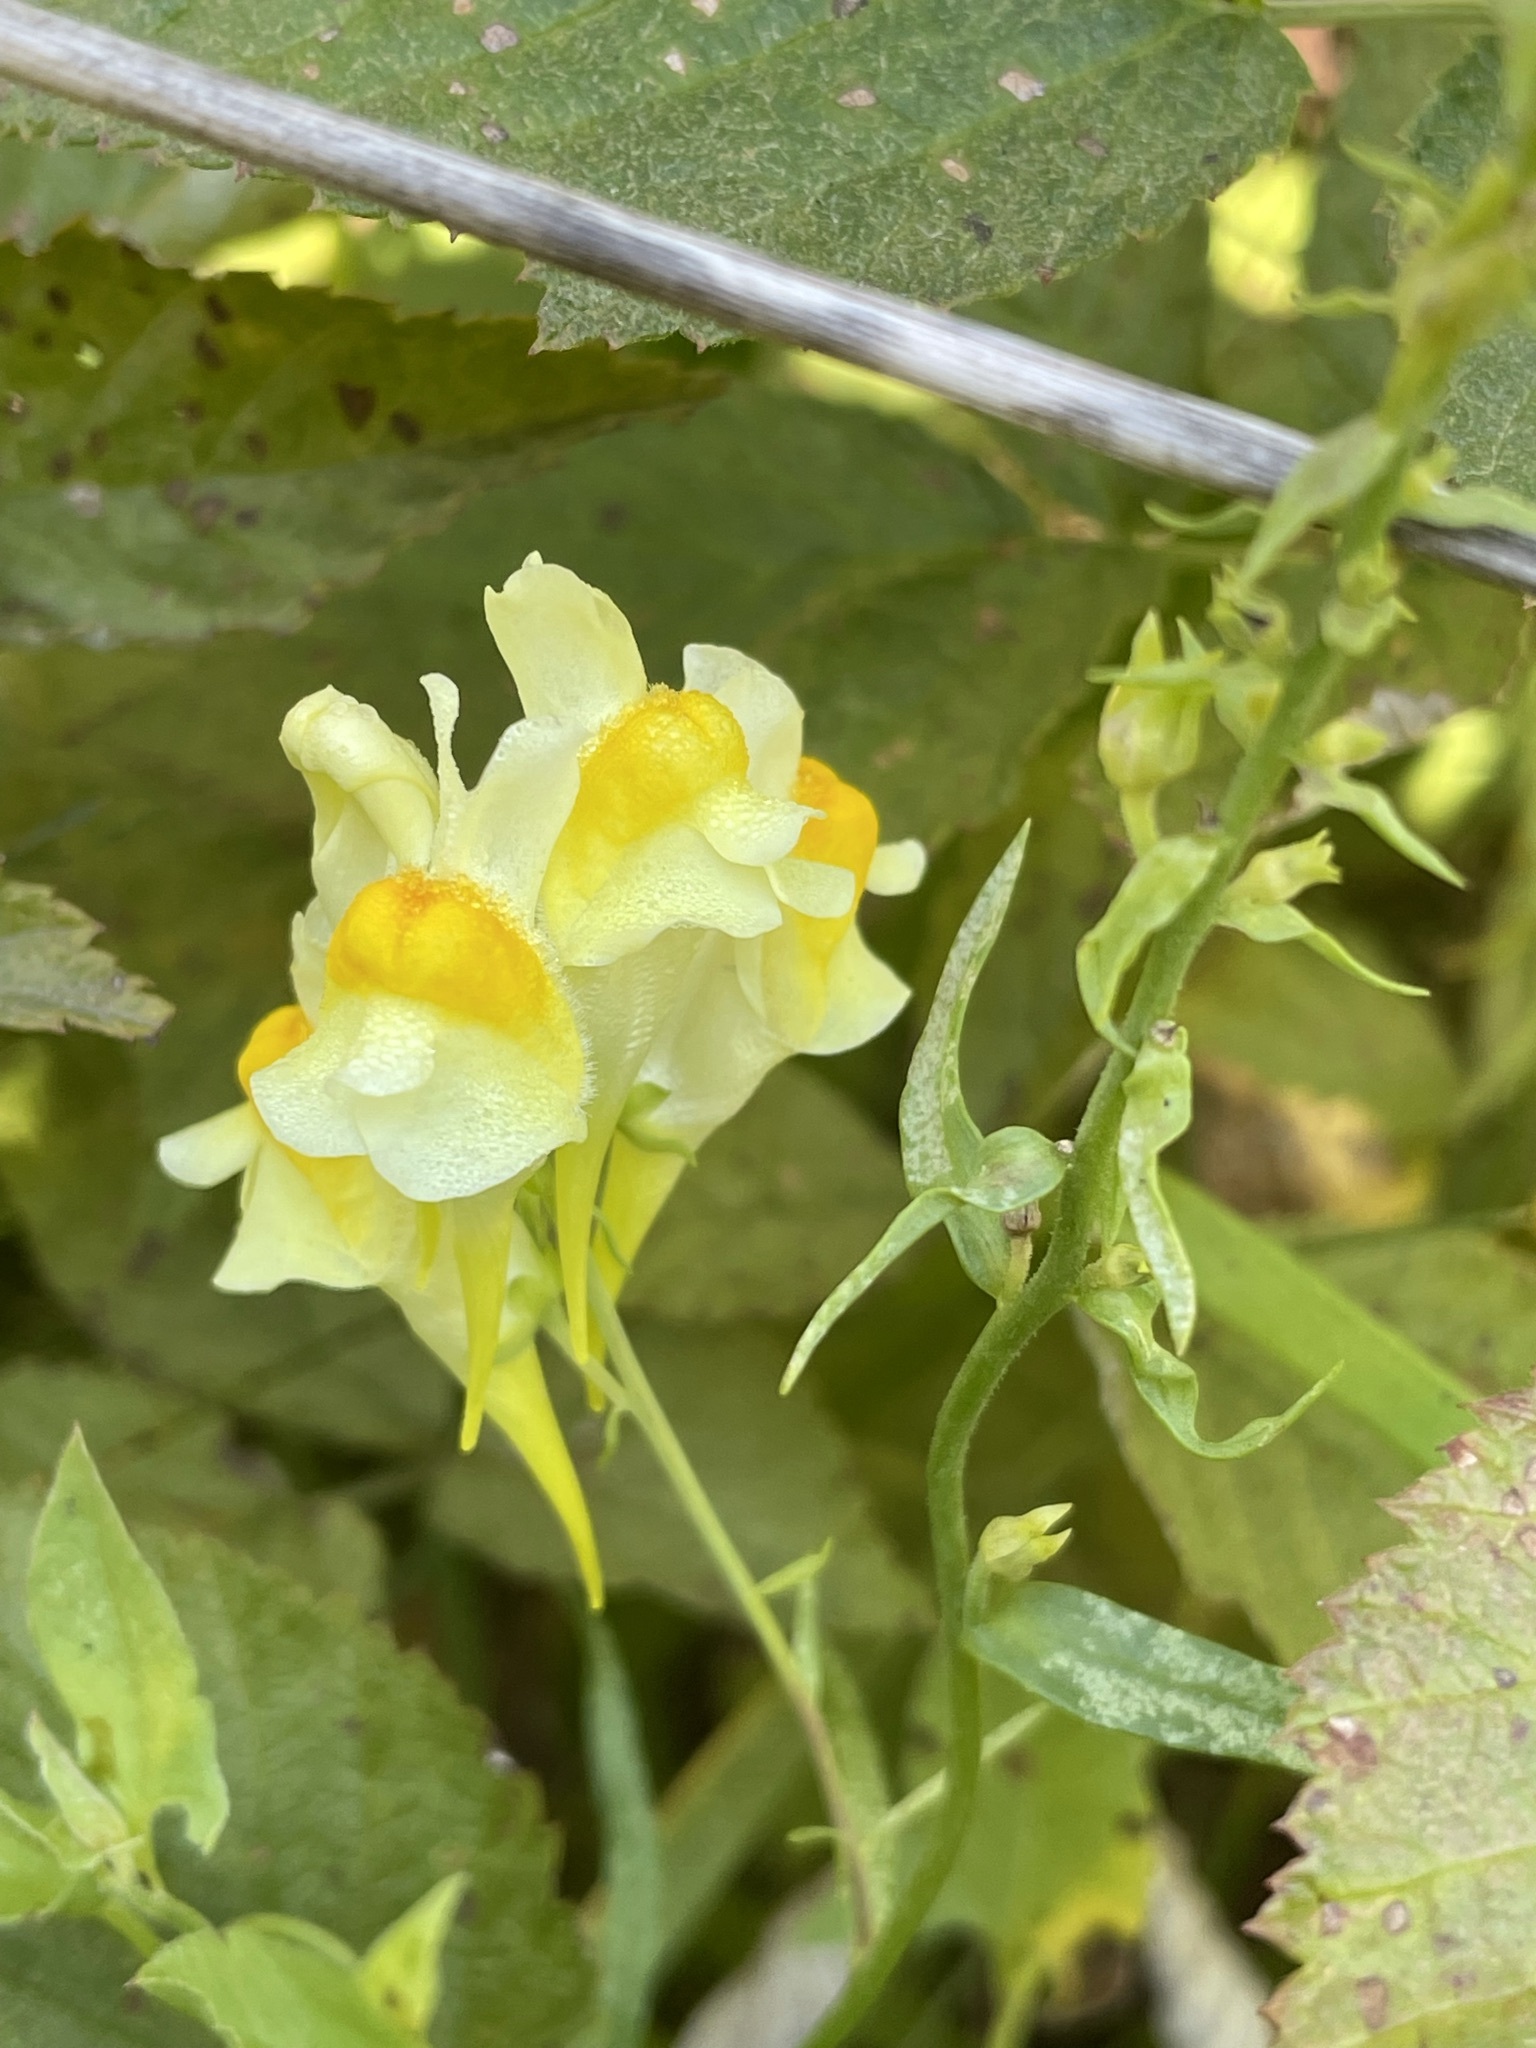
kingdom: Plantae
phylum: Tracheophyta
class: Magnoliopsida
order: Lamiales
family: Plantaginaceae
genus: Linaria
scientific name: Linaria vulgaris
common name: Butter and eggs
